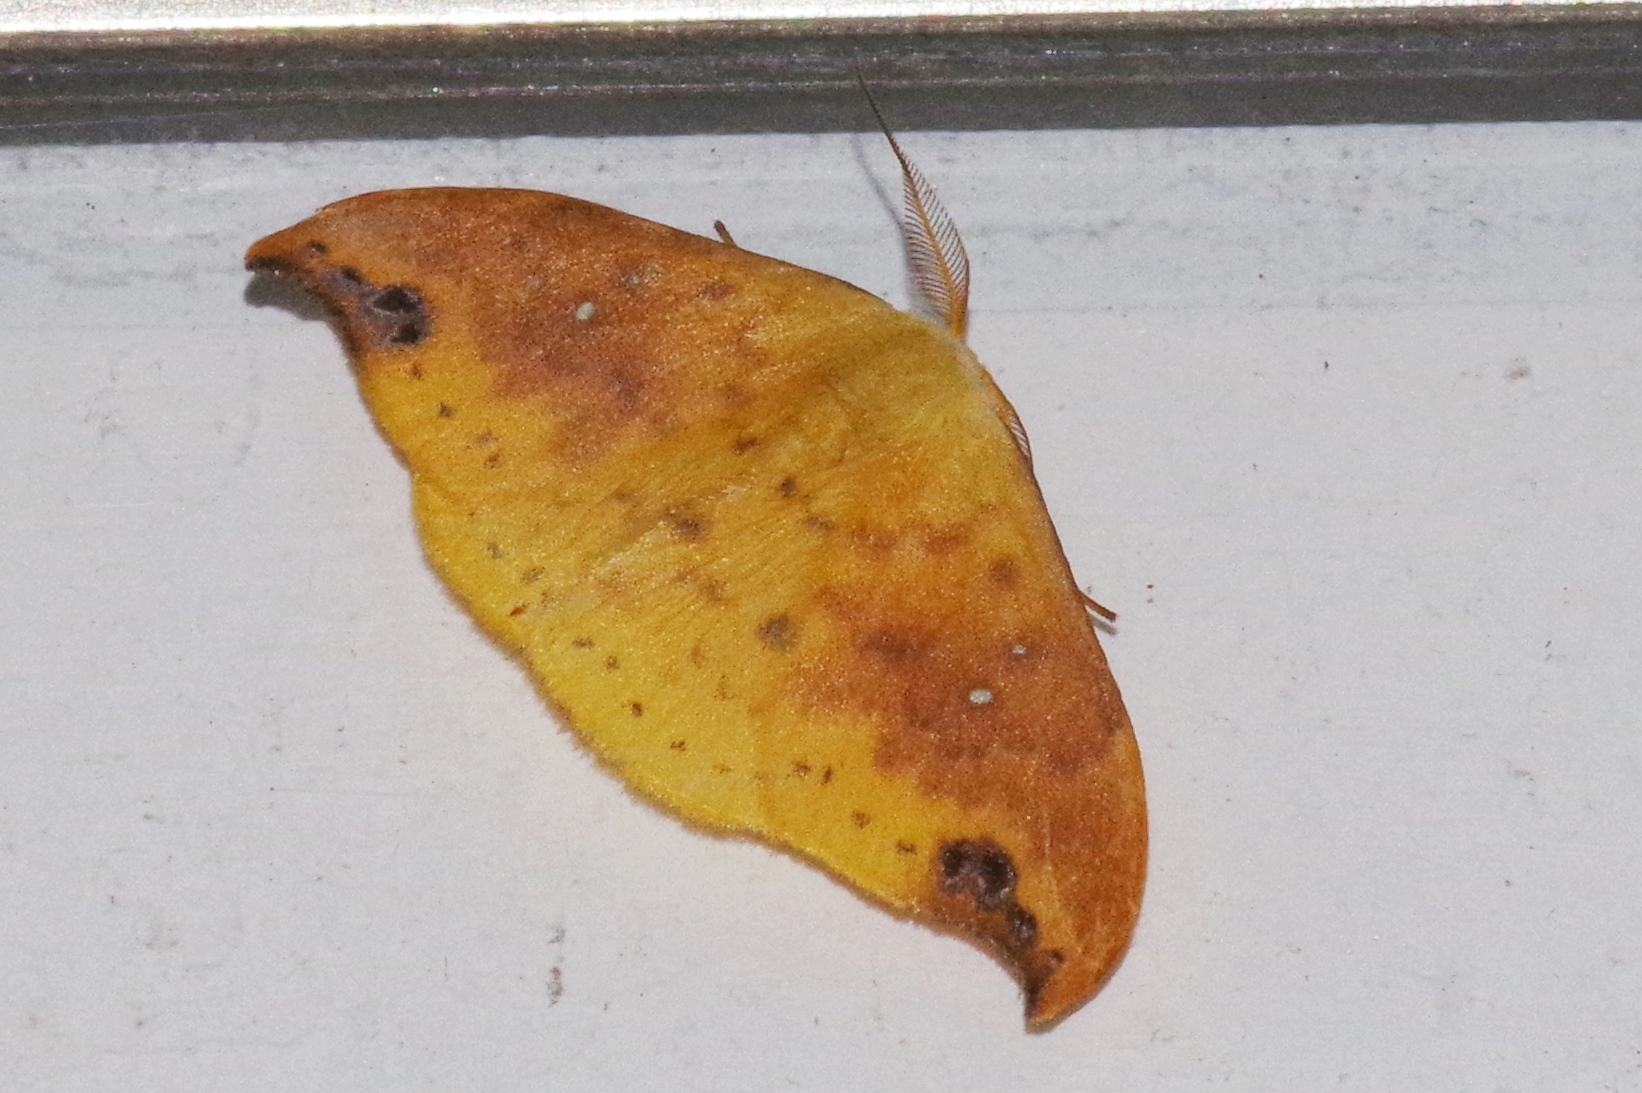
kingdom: Animalia
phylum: Arthropoda
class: Insecta
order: Lepidoptera
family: Drepanidae
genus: Tridrepana
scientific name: Tridrepana
